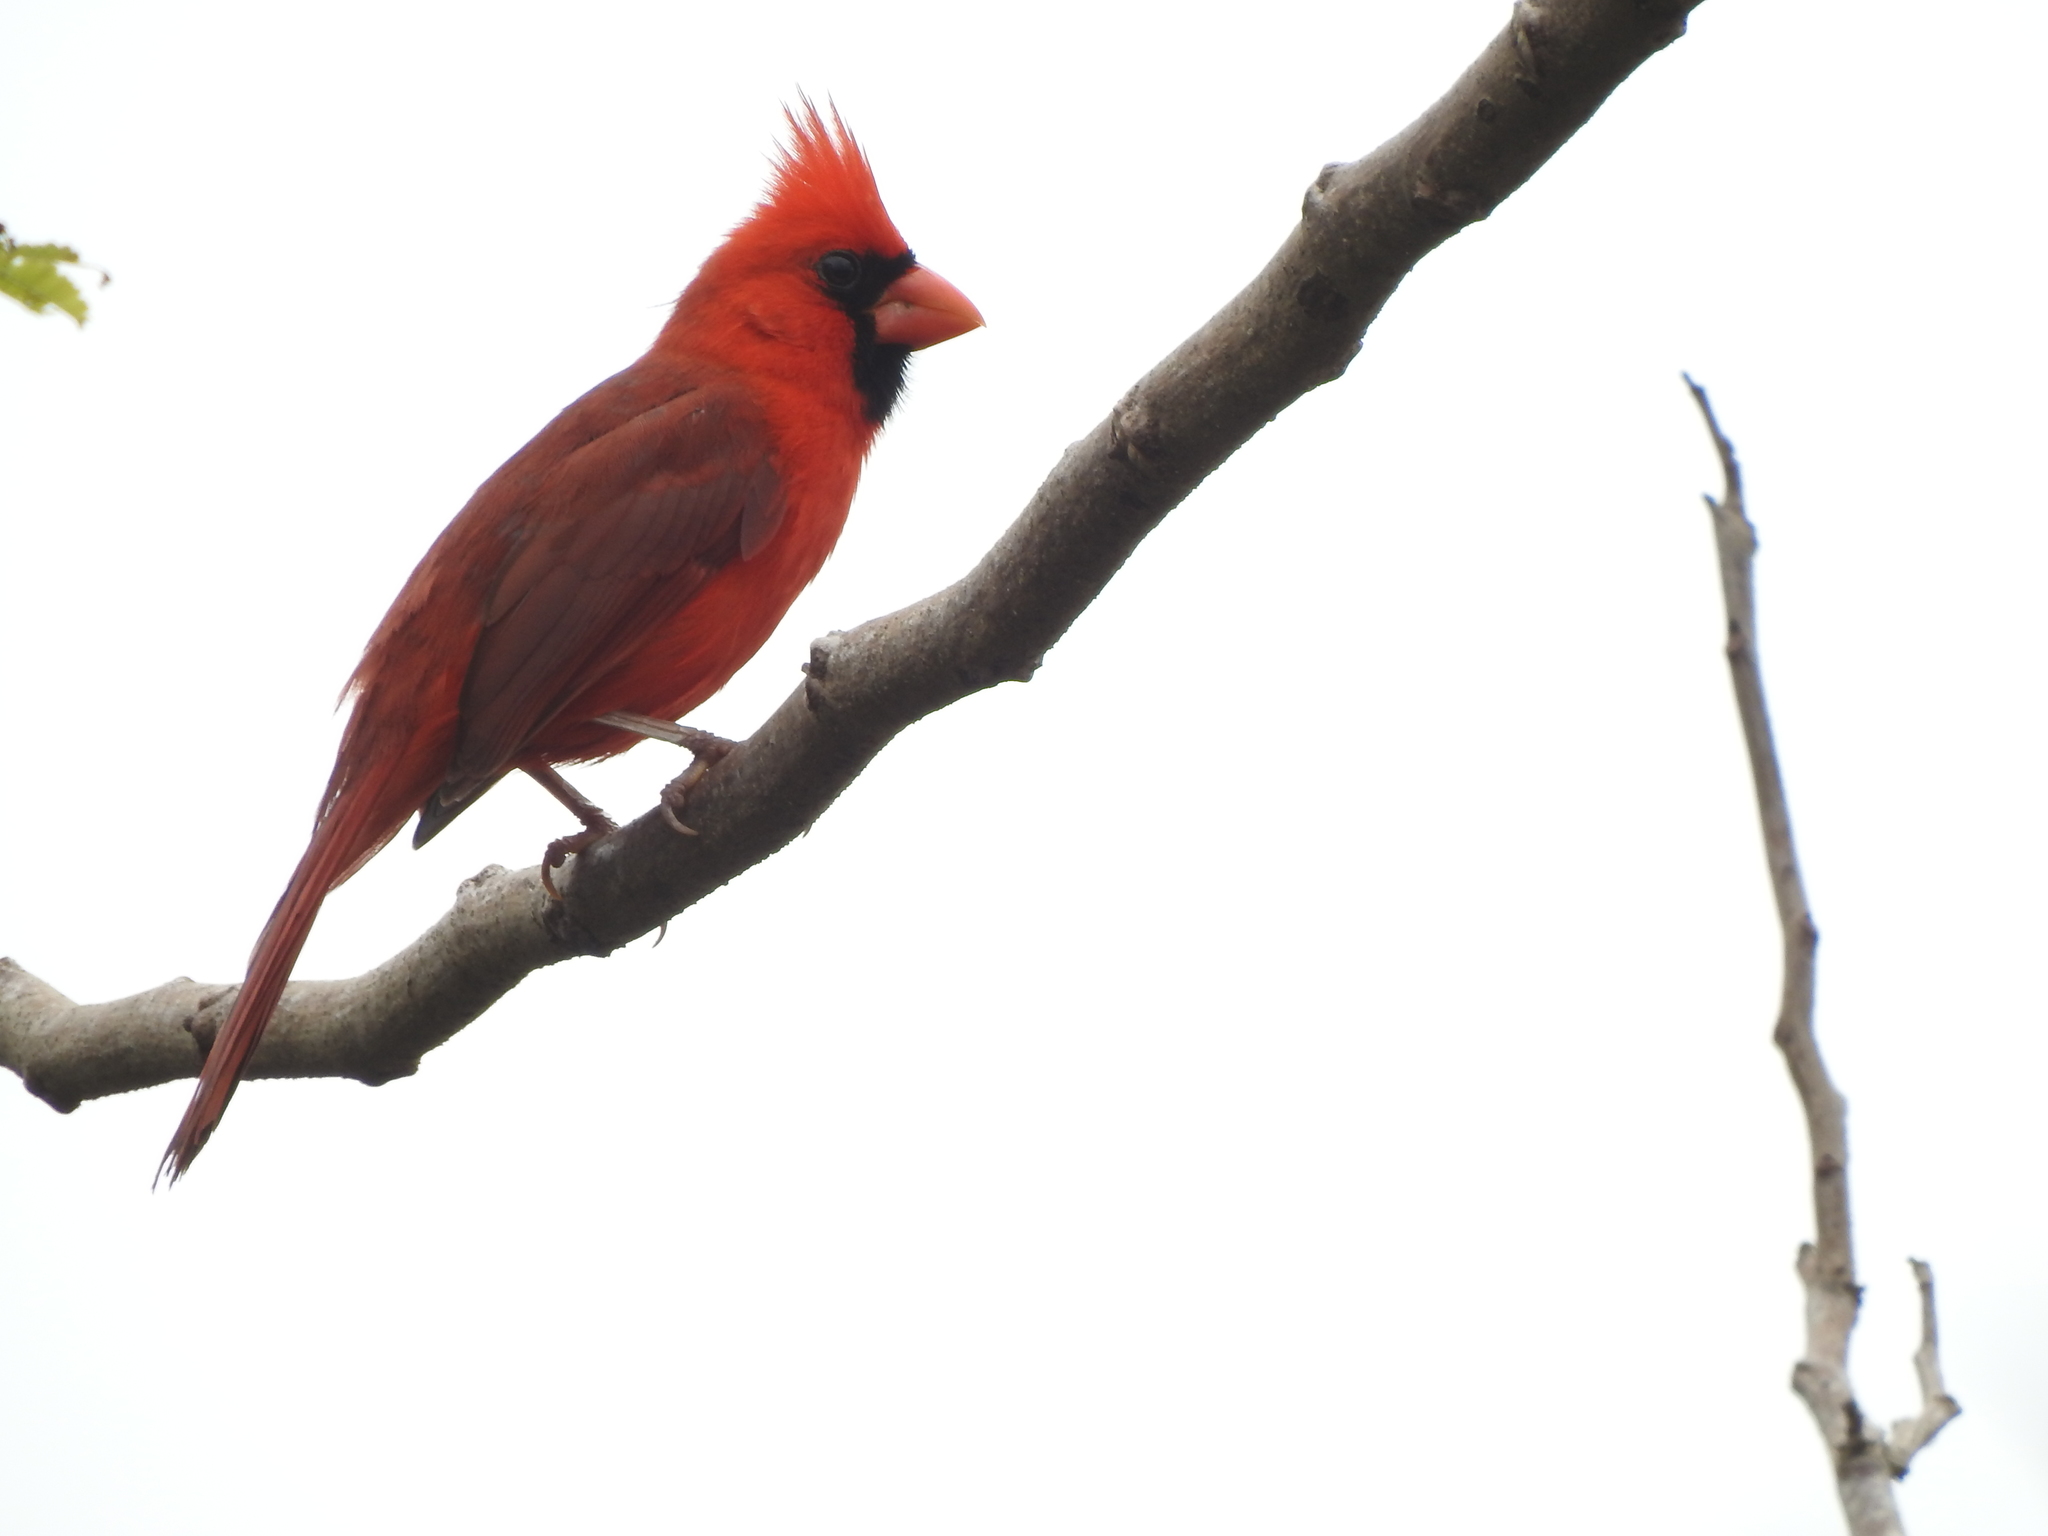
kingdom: Animalia
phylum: Chordata
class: Aves
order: Passeriformes
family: Cardinalidae
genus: Cardinalis
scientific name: Cardinalis cardinalis
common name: Northern cardinal
